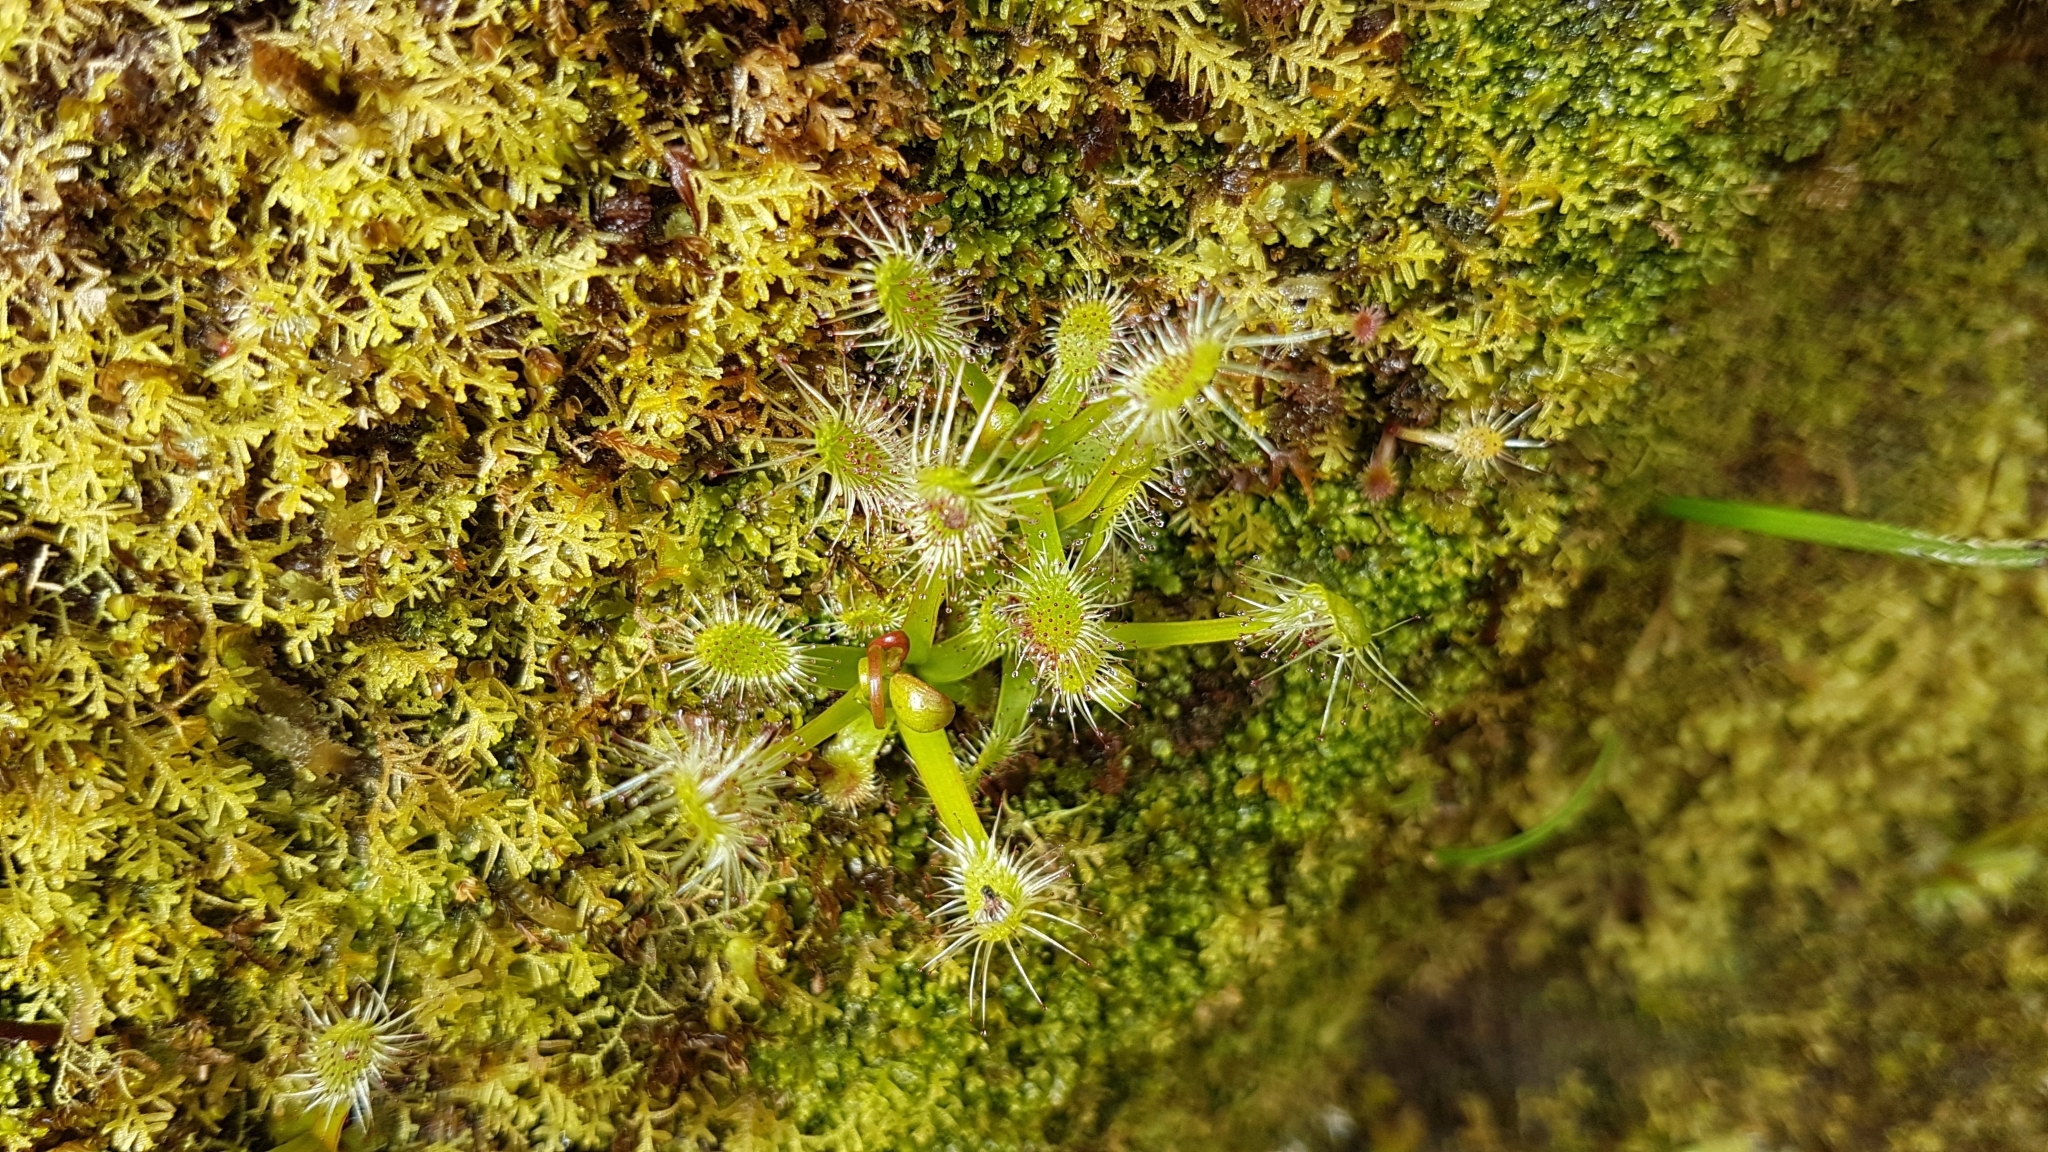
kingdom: Plantae
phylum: Tracheophyta
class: Magnoliopsida
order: Caryophyllales
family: Droseraceae
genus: Drosera
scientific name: Drosera stenopetala
